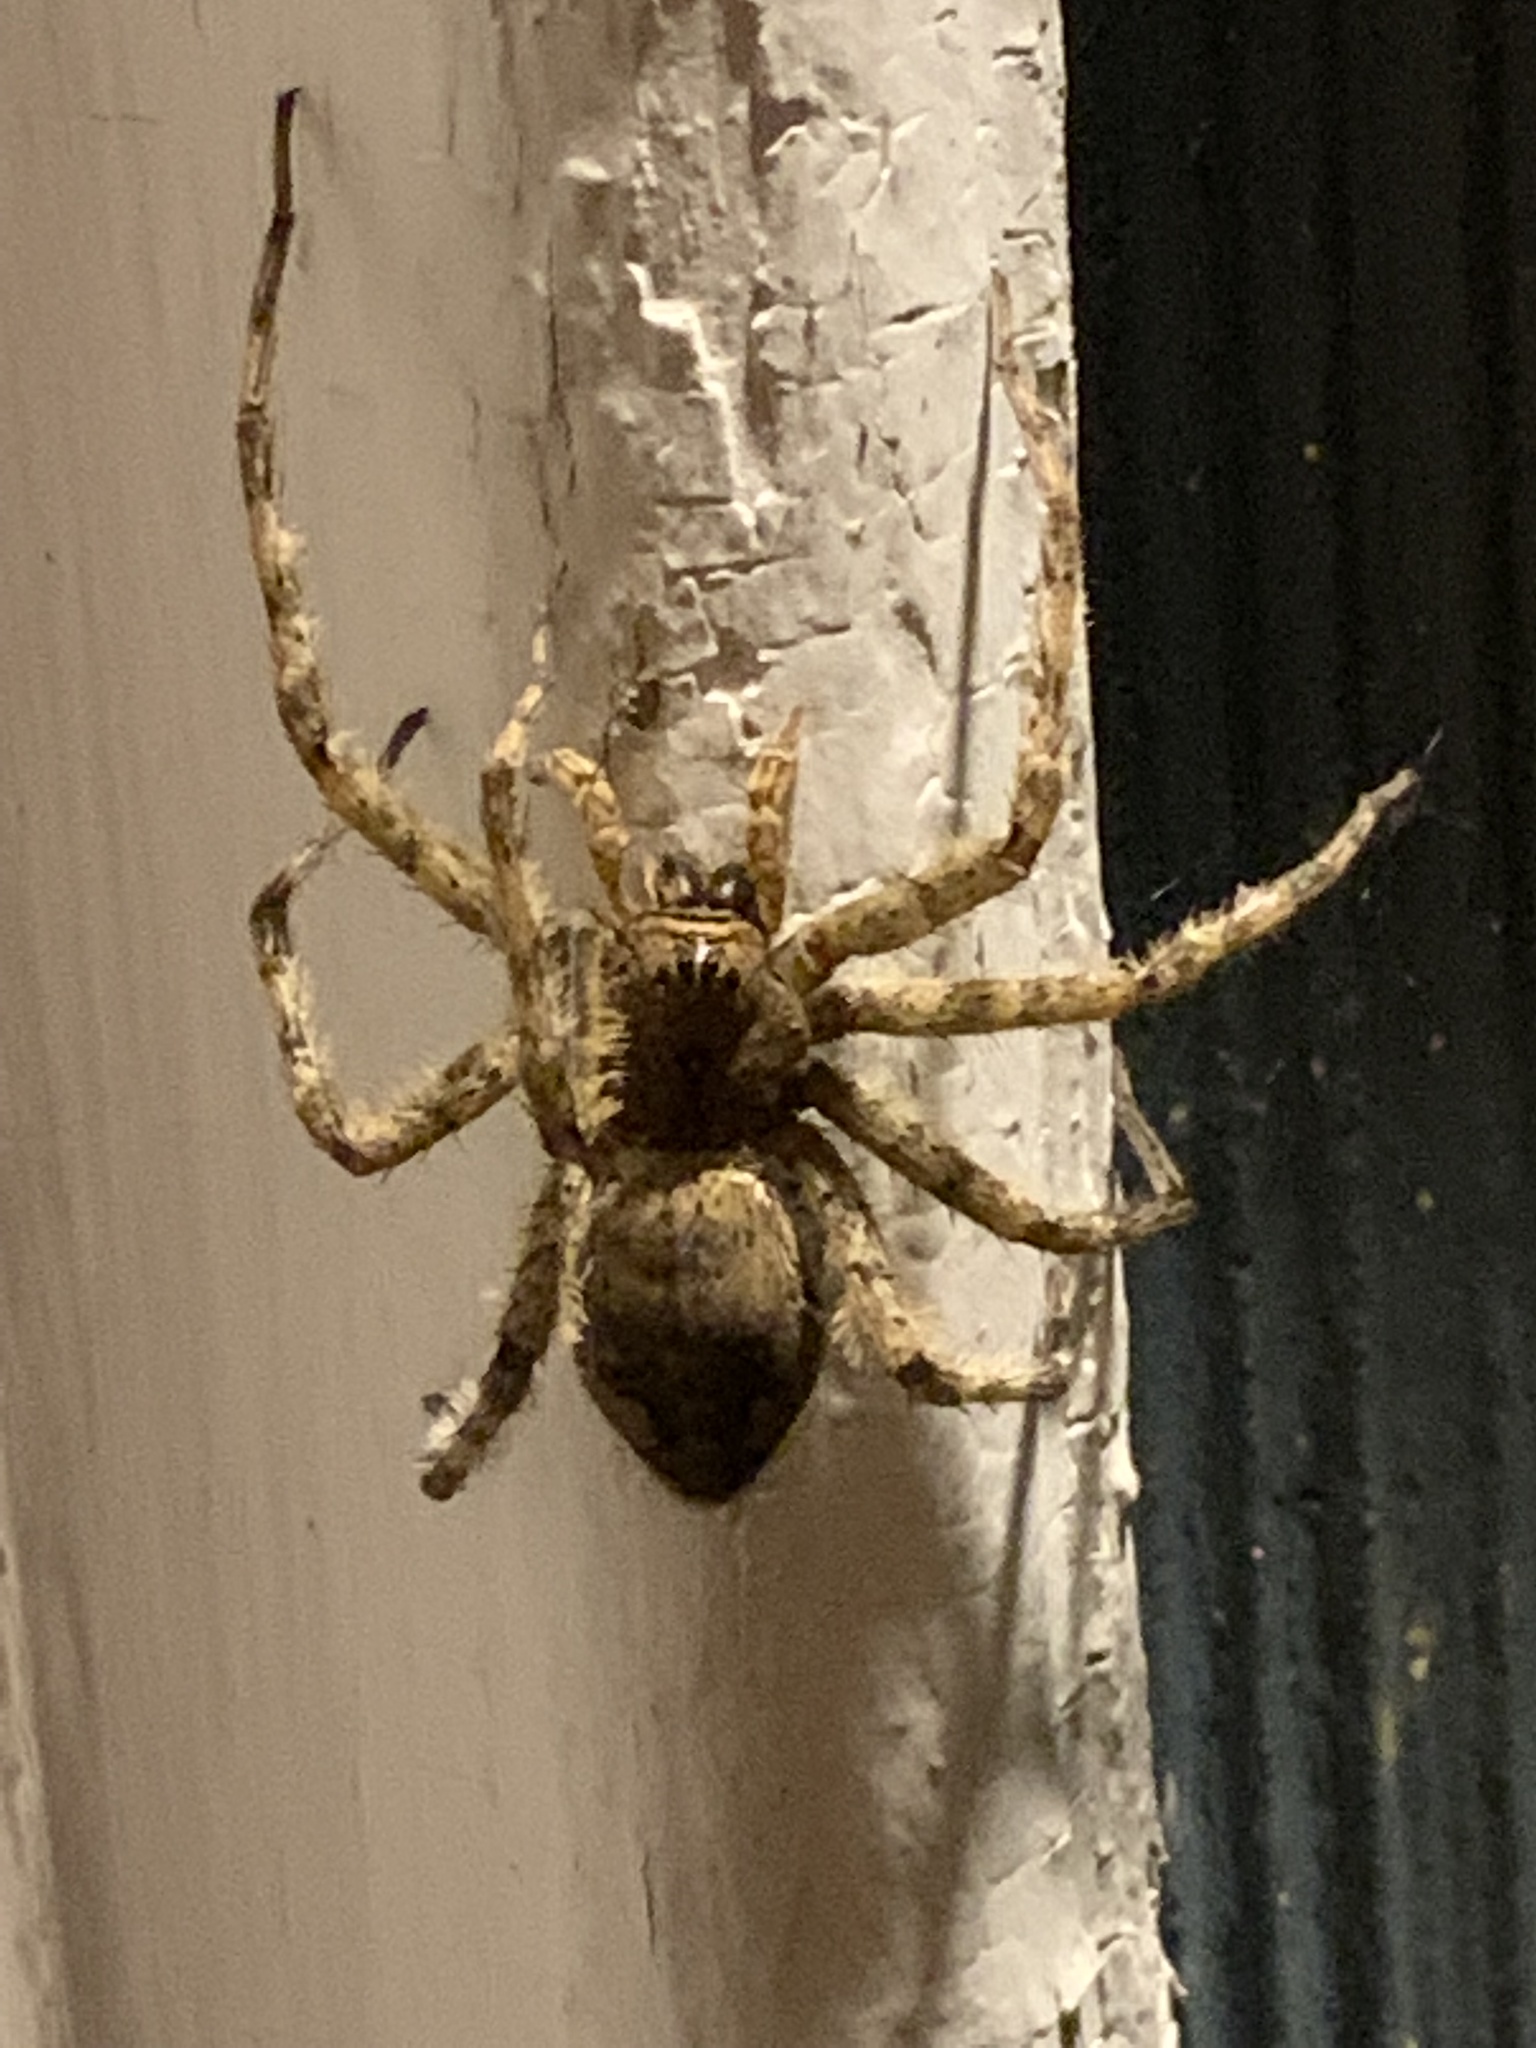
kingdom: Animalia
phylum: Arthropoda
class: Arachnida
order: Araneae
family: Pisauridae
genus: Dolomedes
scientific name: Dolomedes albineus
